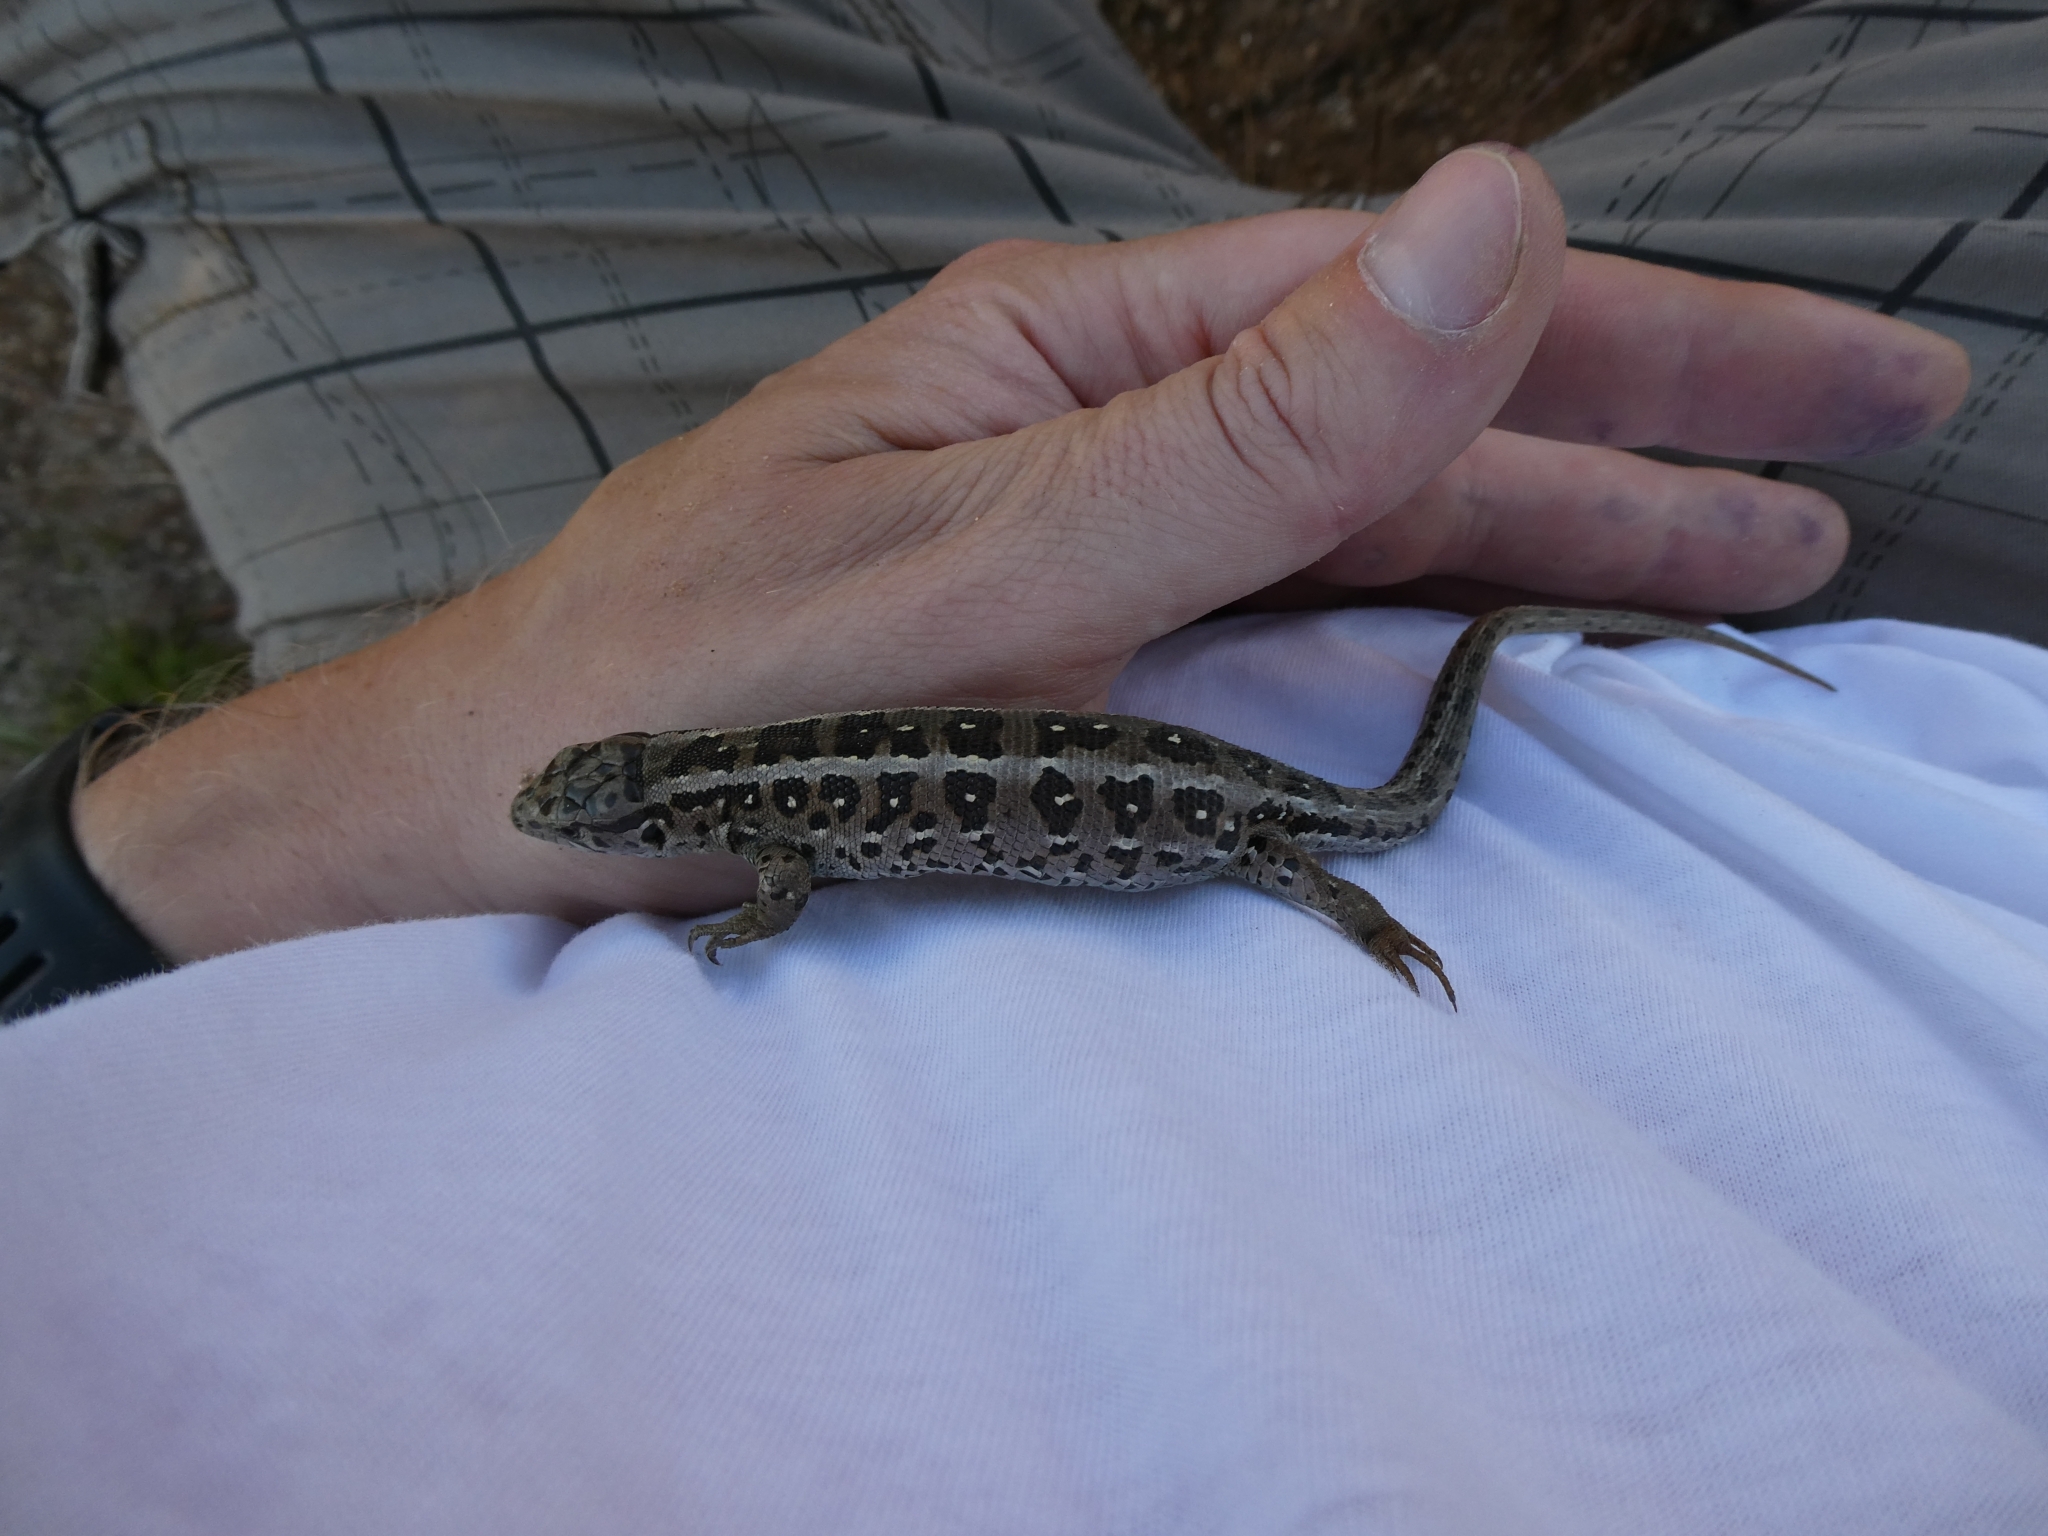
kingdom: Animalia
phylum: Chordata
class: Squamata
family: Lacertidae
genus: Lacerta
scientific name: Lacerta agilis
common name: Sand lizard
